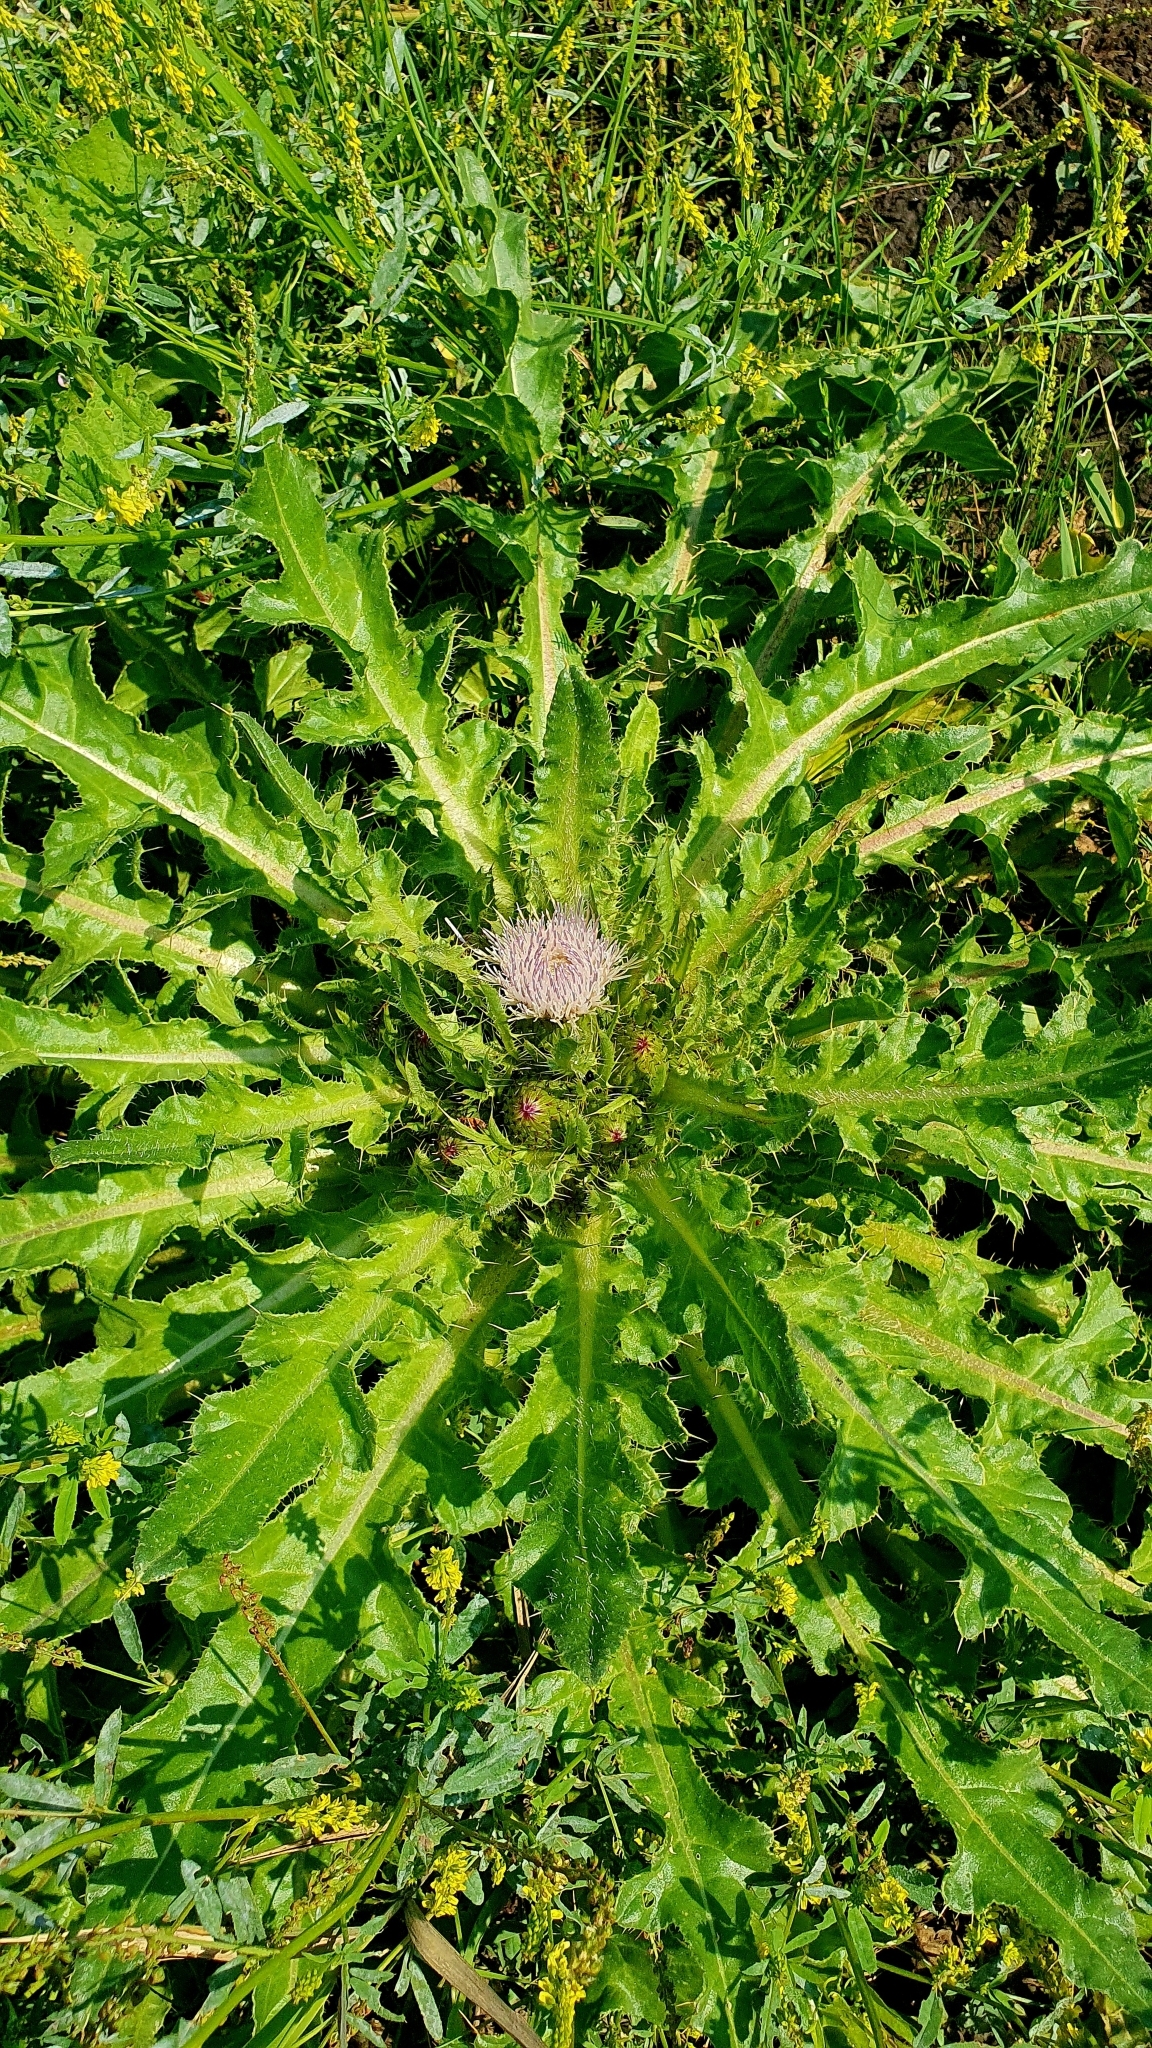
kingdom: Plantae
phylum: Tracheophyta
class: Magnoliopsida
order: Asterales
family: Asteraceae
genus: Cirsium
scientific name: Cirsium esculentum
